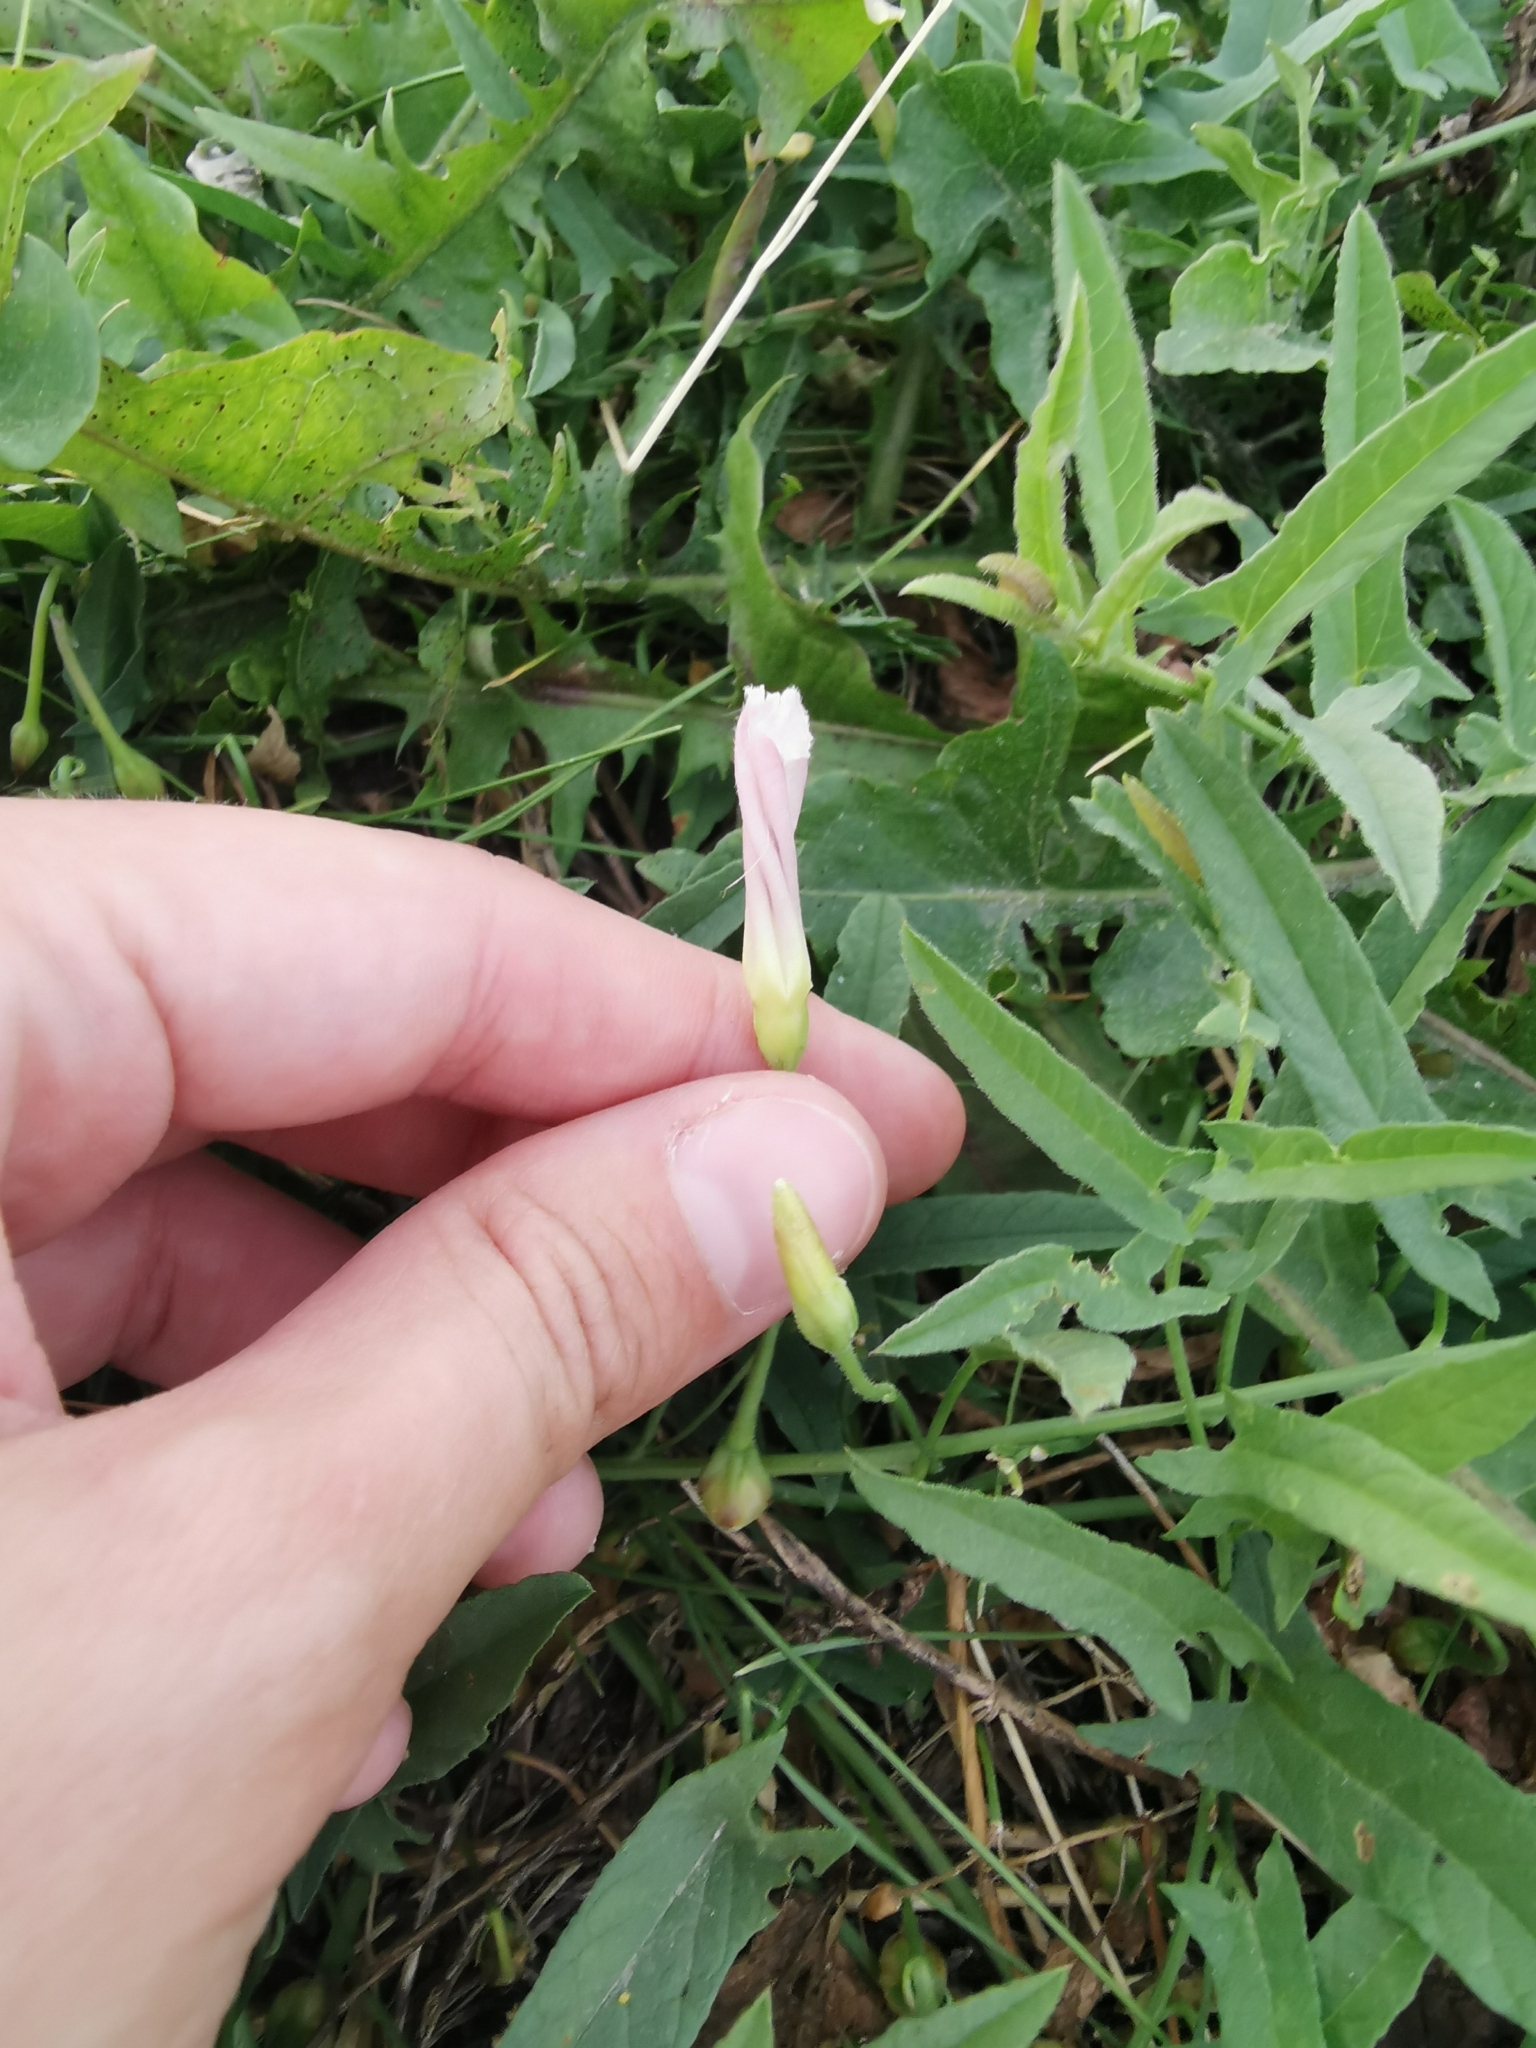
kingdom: Plantae
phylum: Tracheophyta
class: Magnoliopsida
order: Solanales
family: Convolvulaceae
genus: Convolvulus
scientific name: Convolvulus arvensis
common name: Field bindweed
